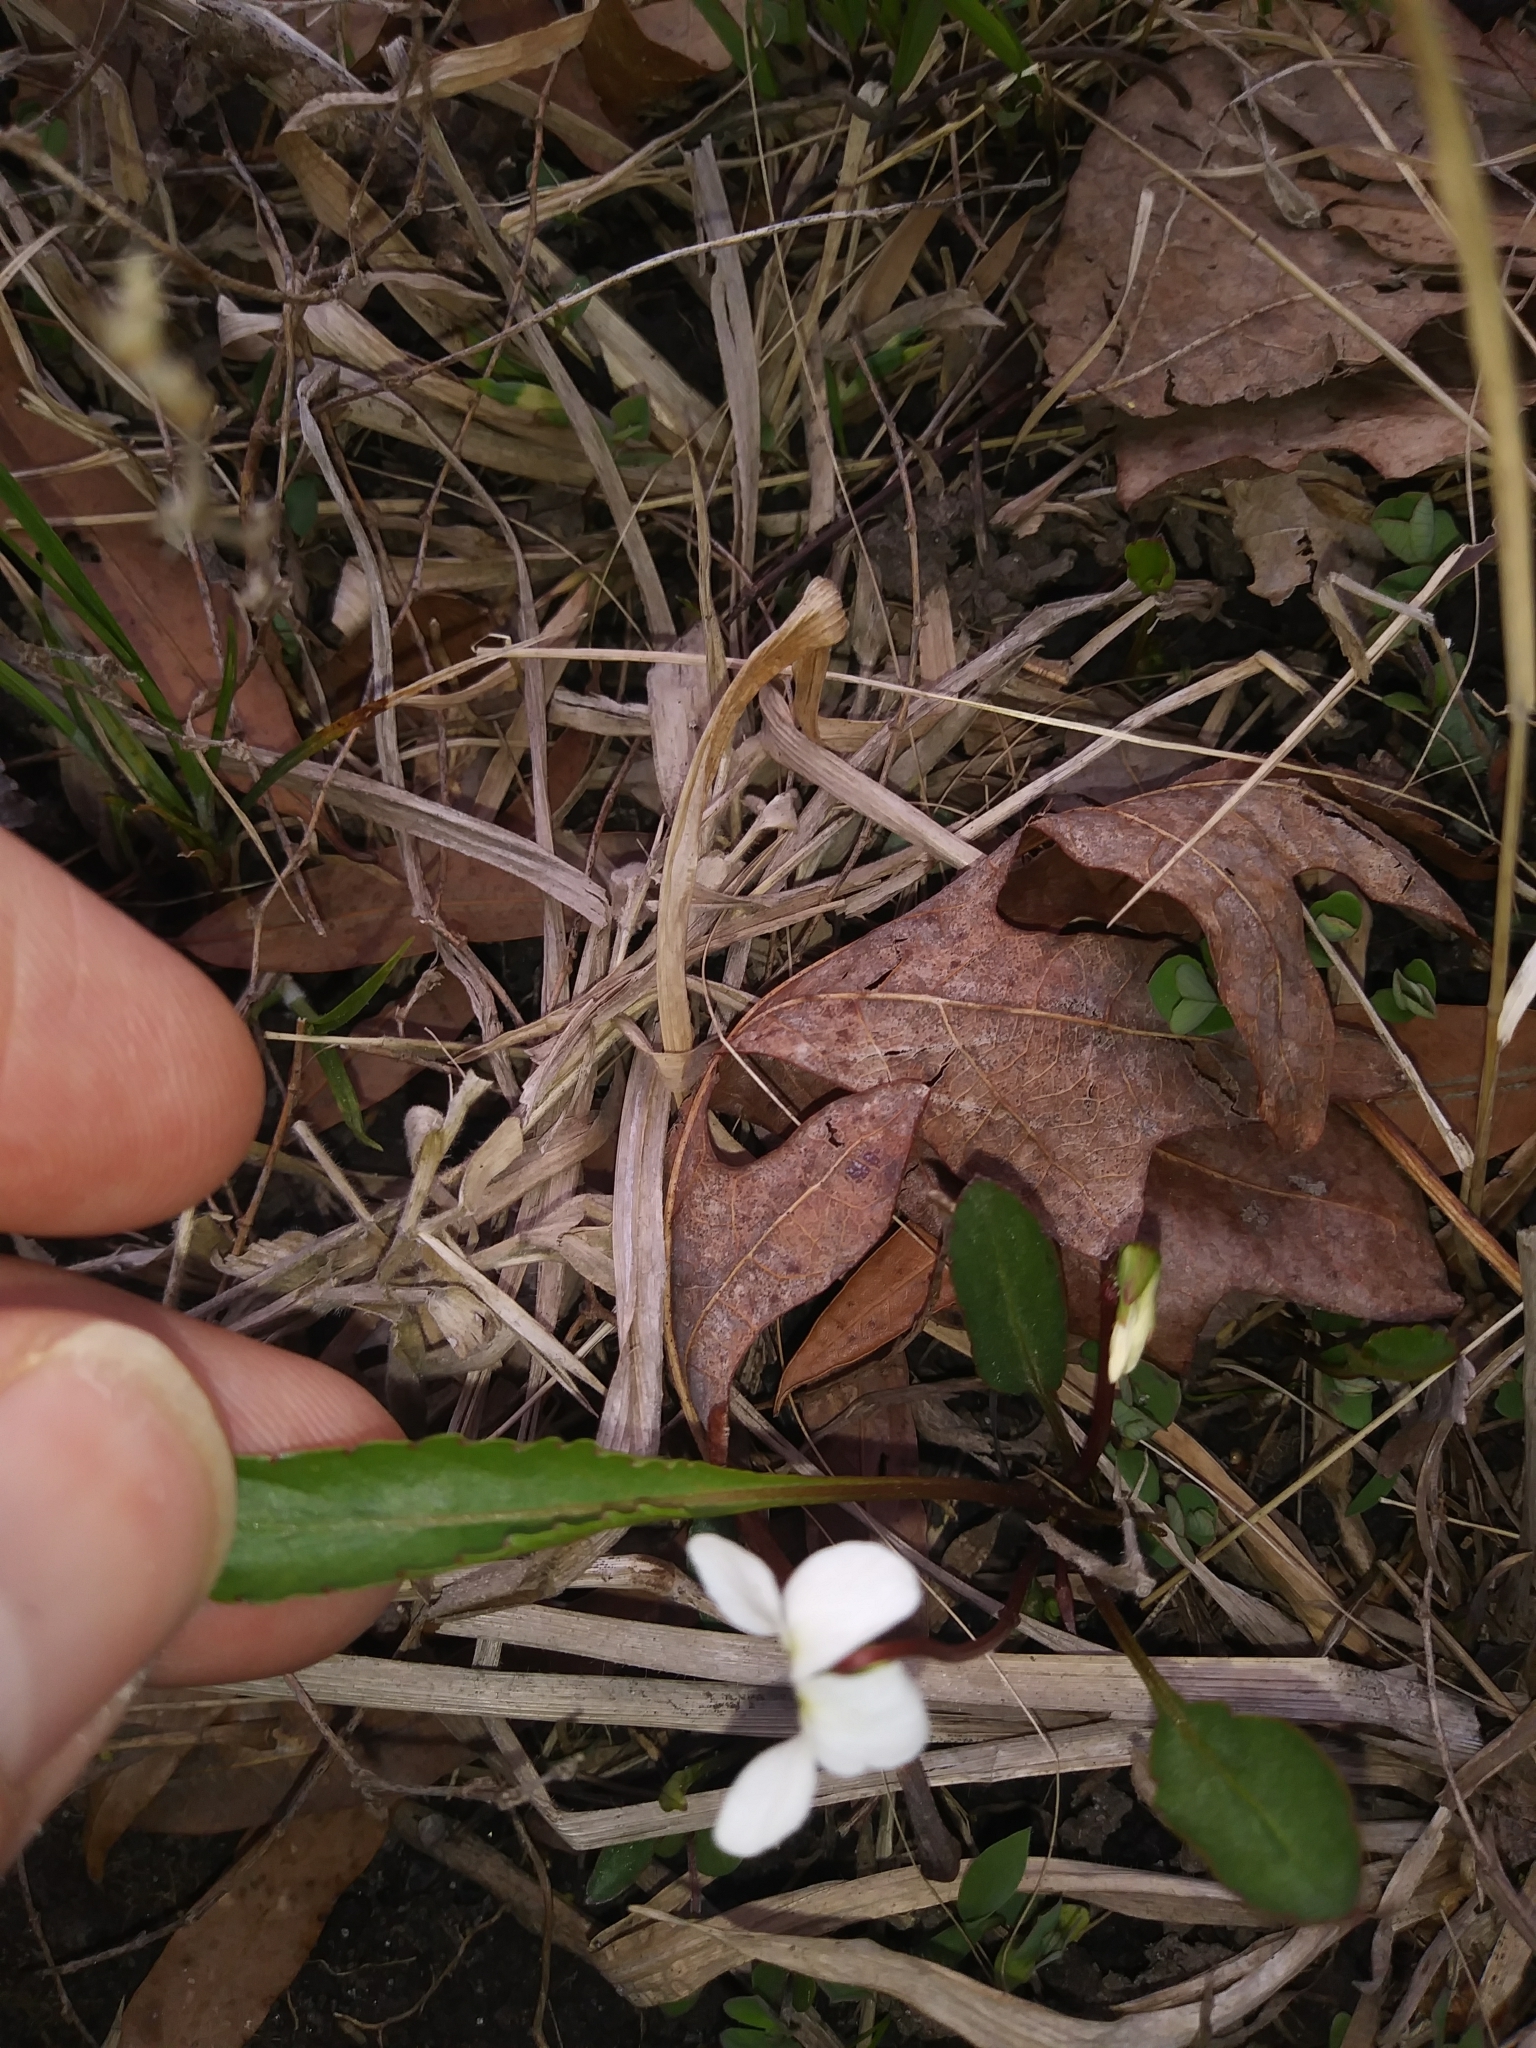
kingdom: Plantae
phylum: Tracheophyta
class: Magnoliopsida
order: Malpighiales
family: Violaceae
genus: Viola
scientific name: Viola lanceolata
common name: Bog white violet
